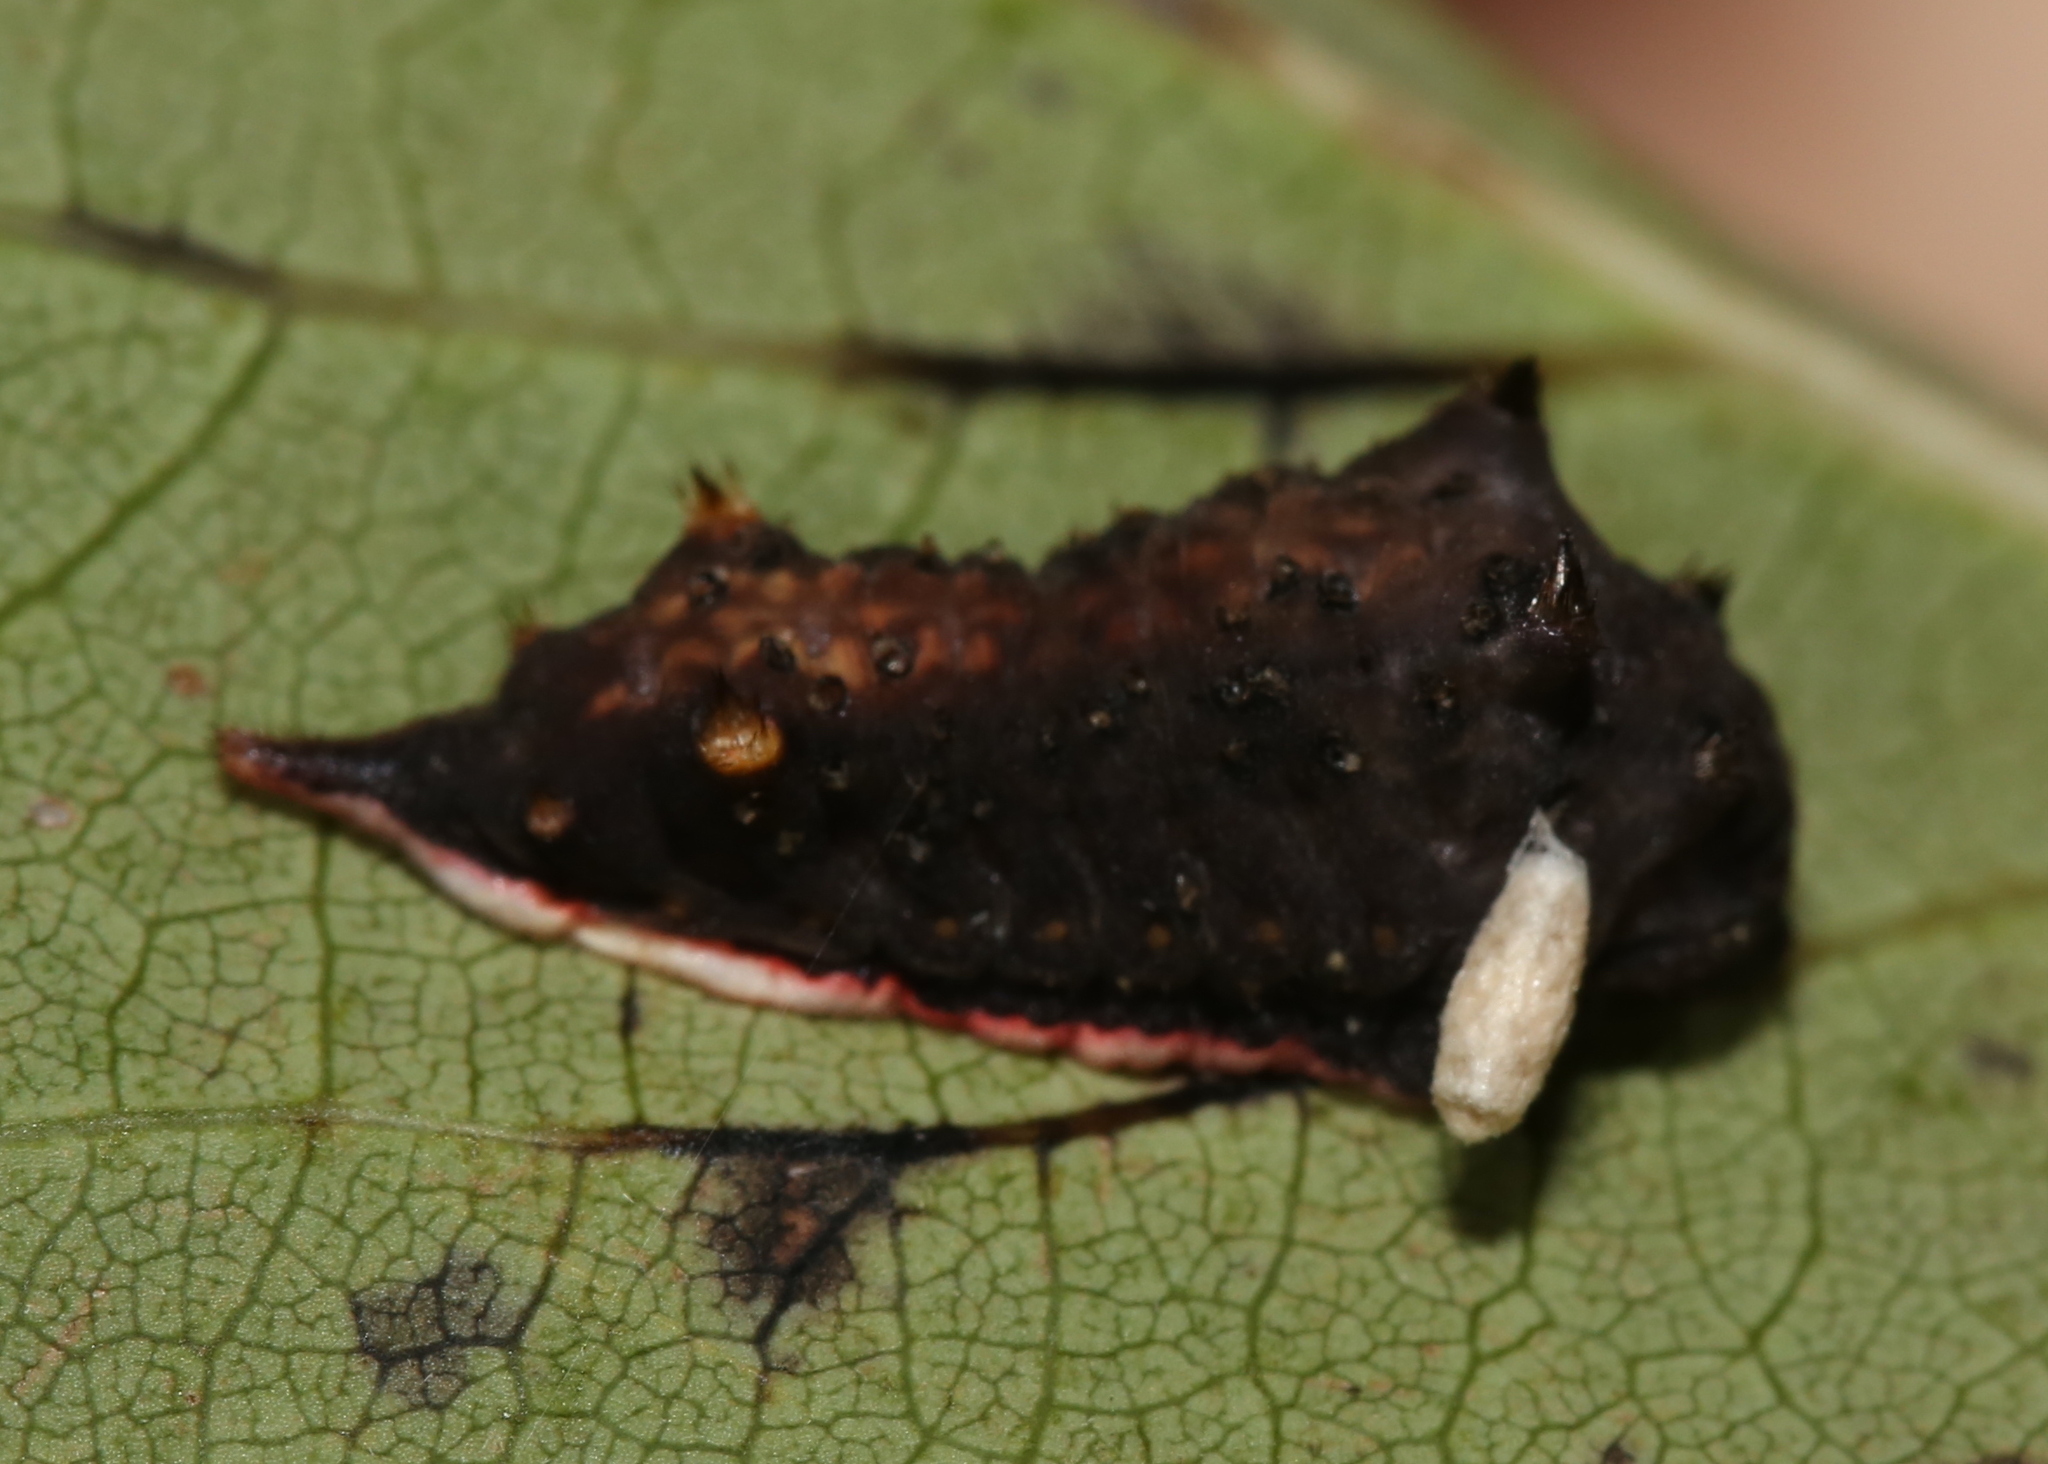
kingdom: Animalia
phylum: Arthropoda
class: Insecta
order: Lepidoptera
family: Limacodidae
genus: Parasa
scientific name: Parasa chloris
